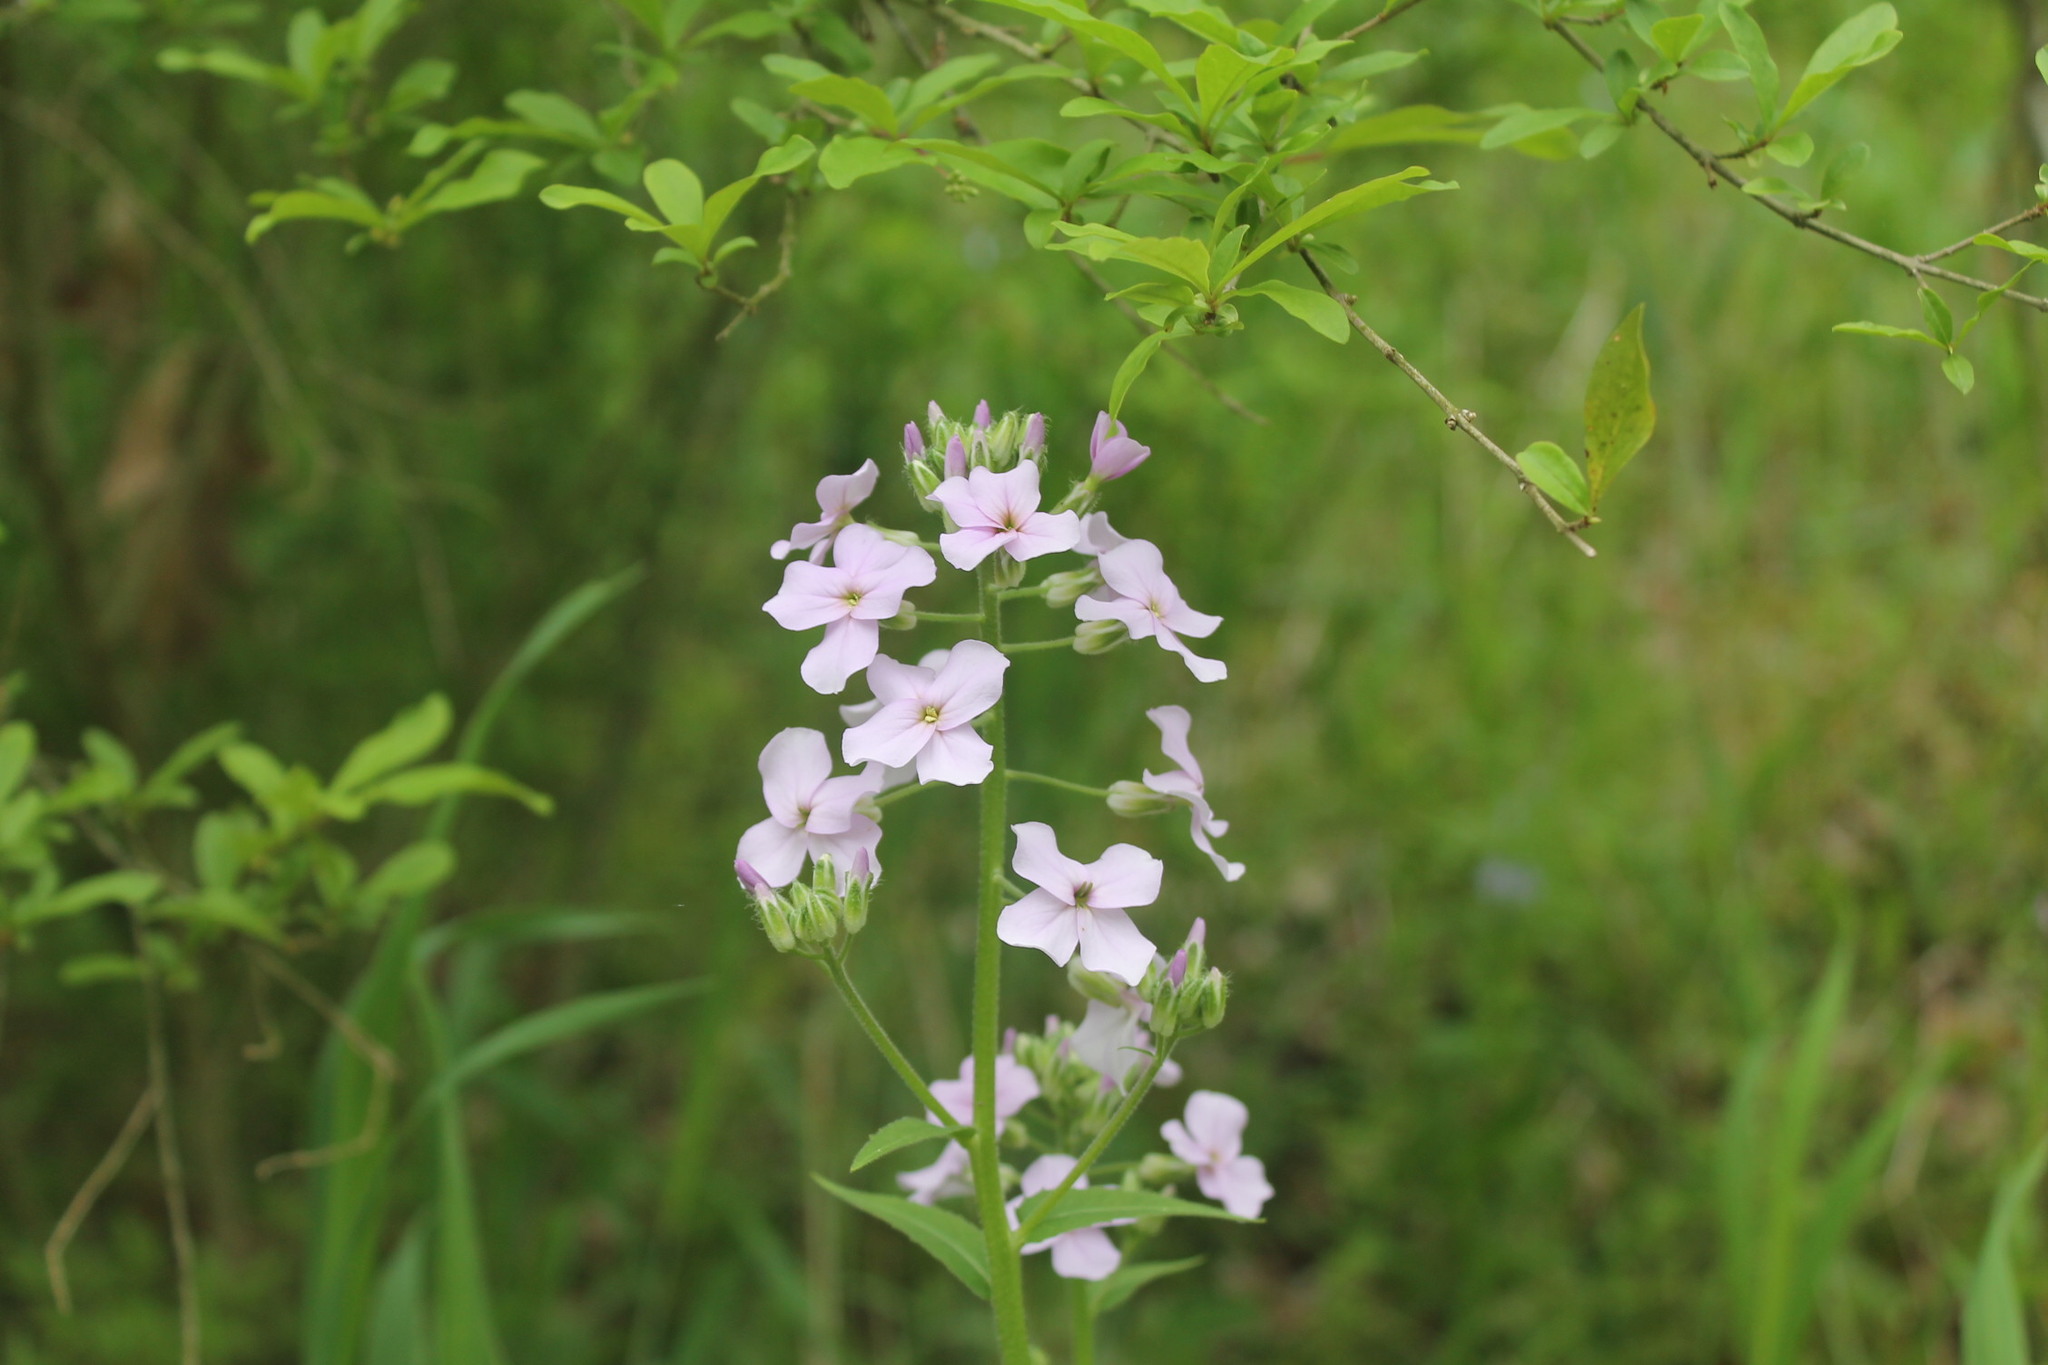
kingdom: Plantae
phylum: Tracheophyta
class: Magnoliopsida
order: Brassicales
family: Brassicaceae
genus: Hesperis
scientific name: Hesperis matronalis
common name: Dame's-violet
